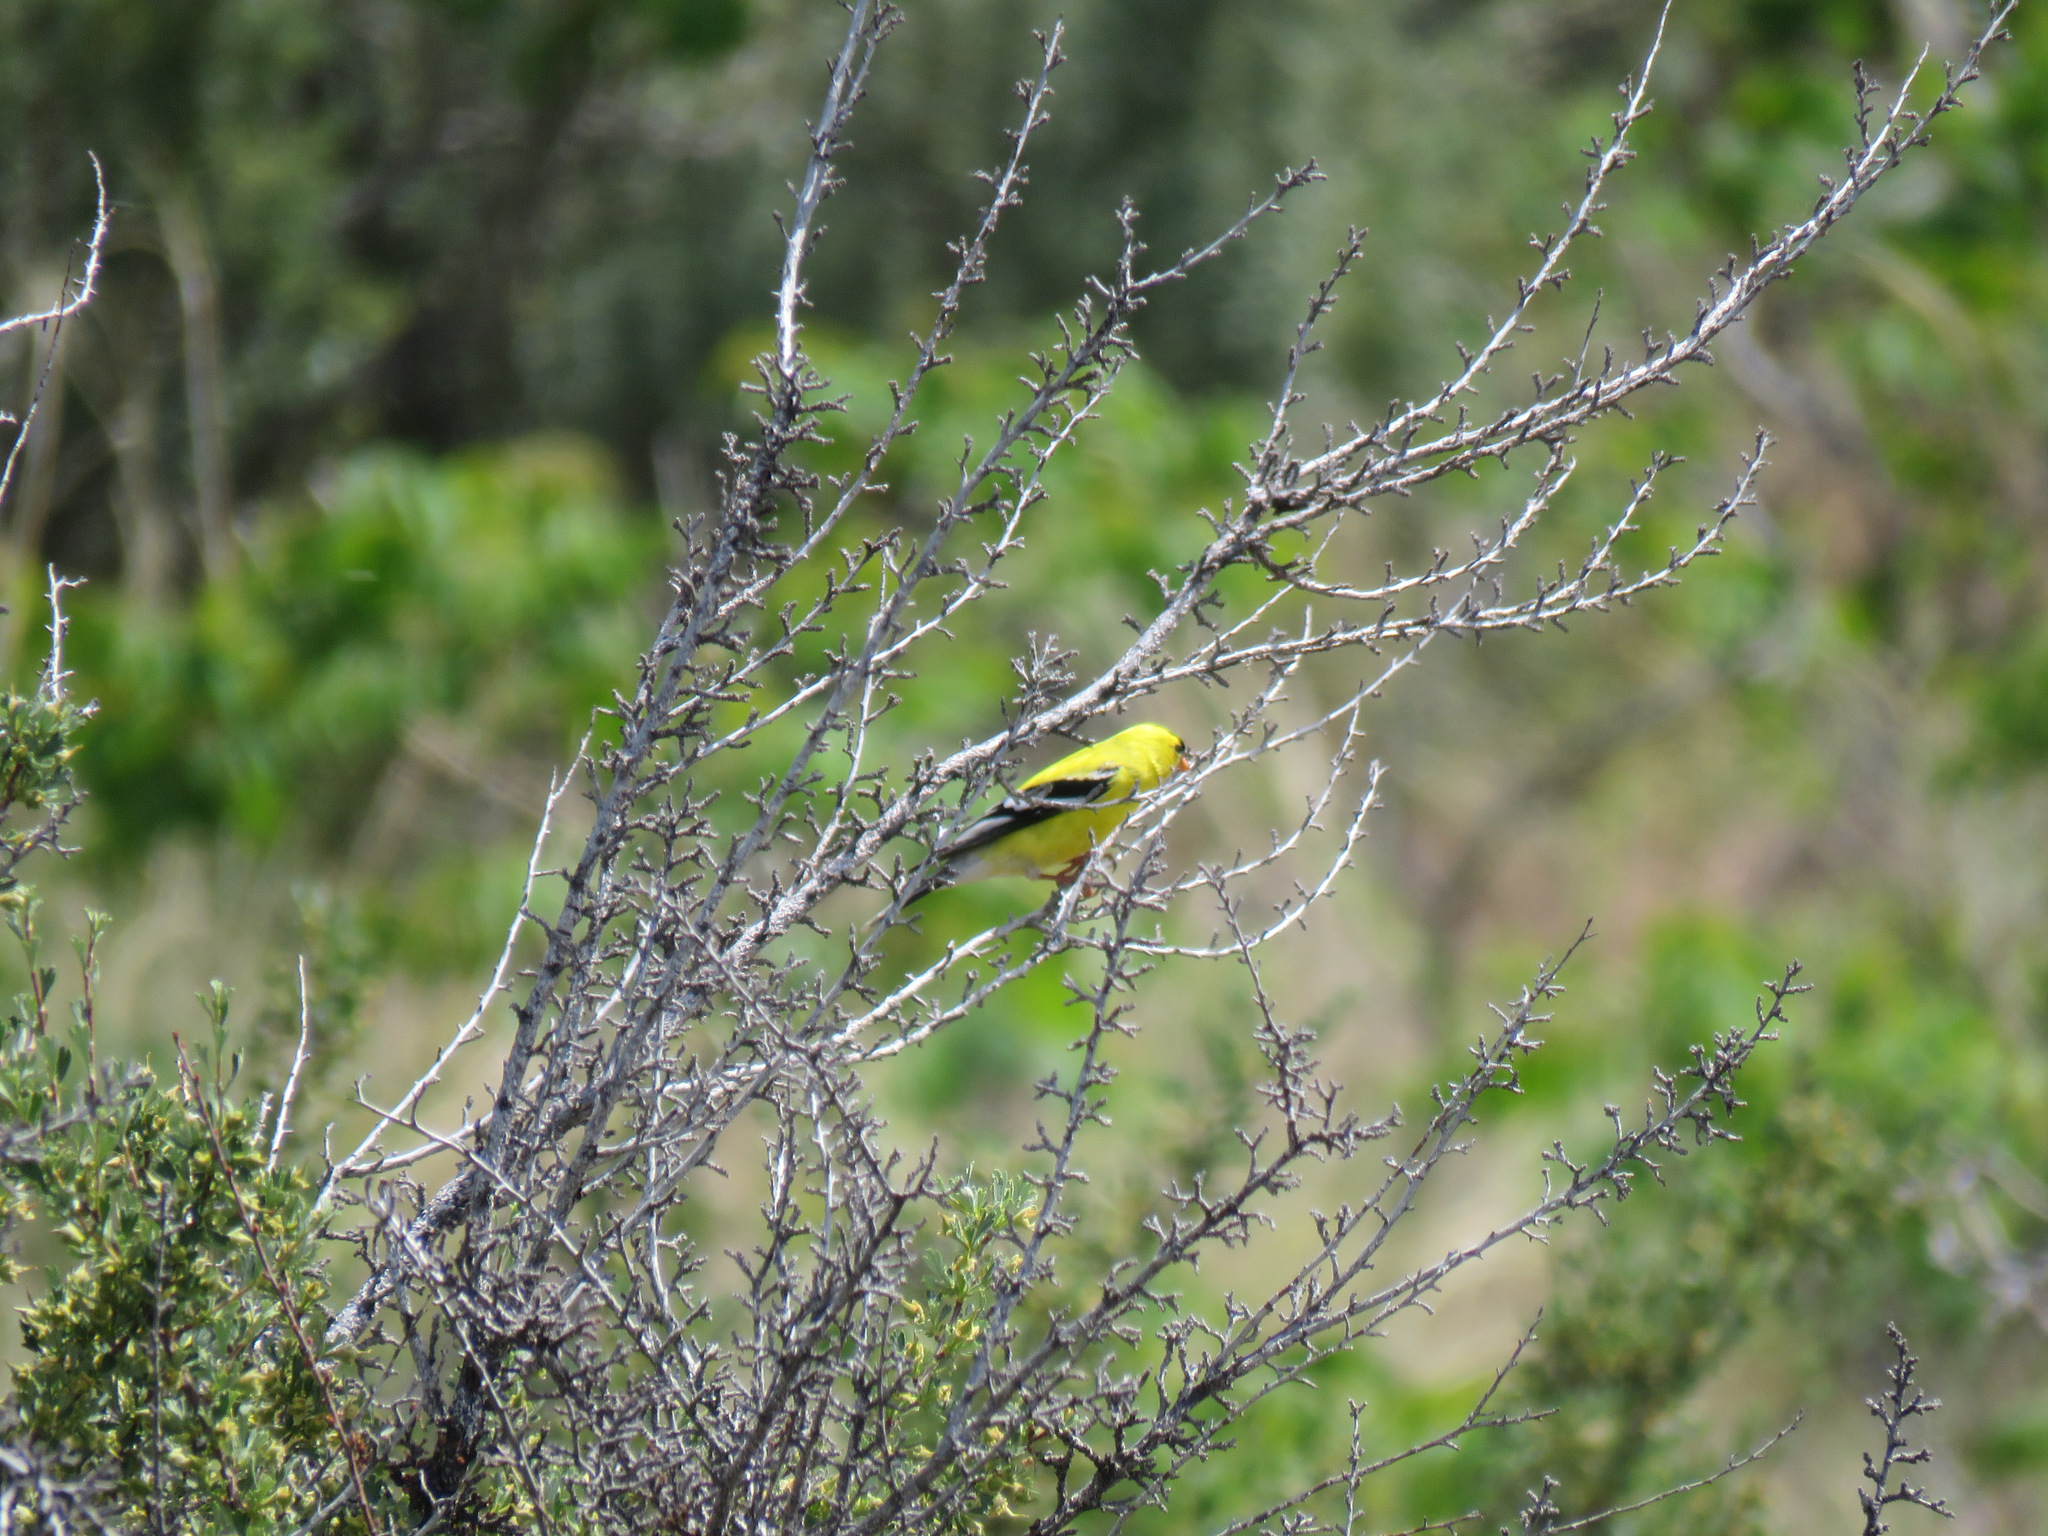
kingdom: Animalia
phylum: Chordata
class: Aves
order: Passeriformes
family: Fringillidae
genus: Spinus
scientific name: Spinus tristis
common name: American goldfinch
